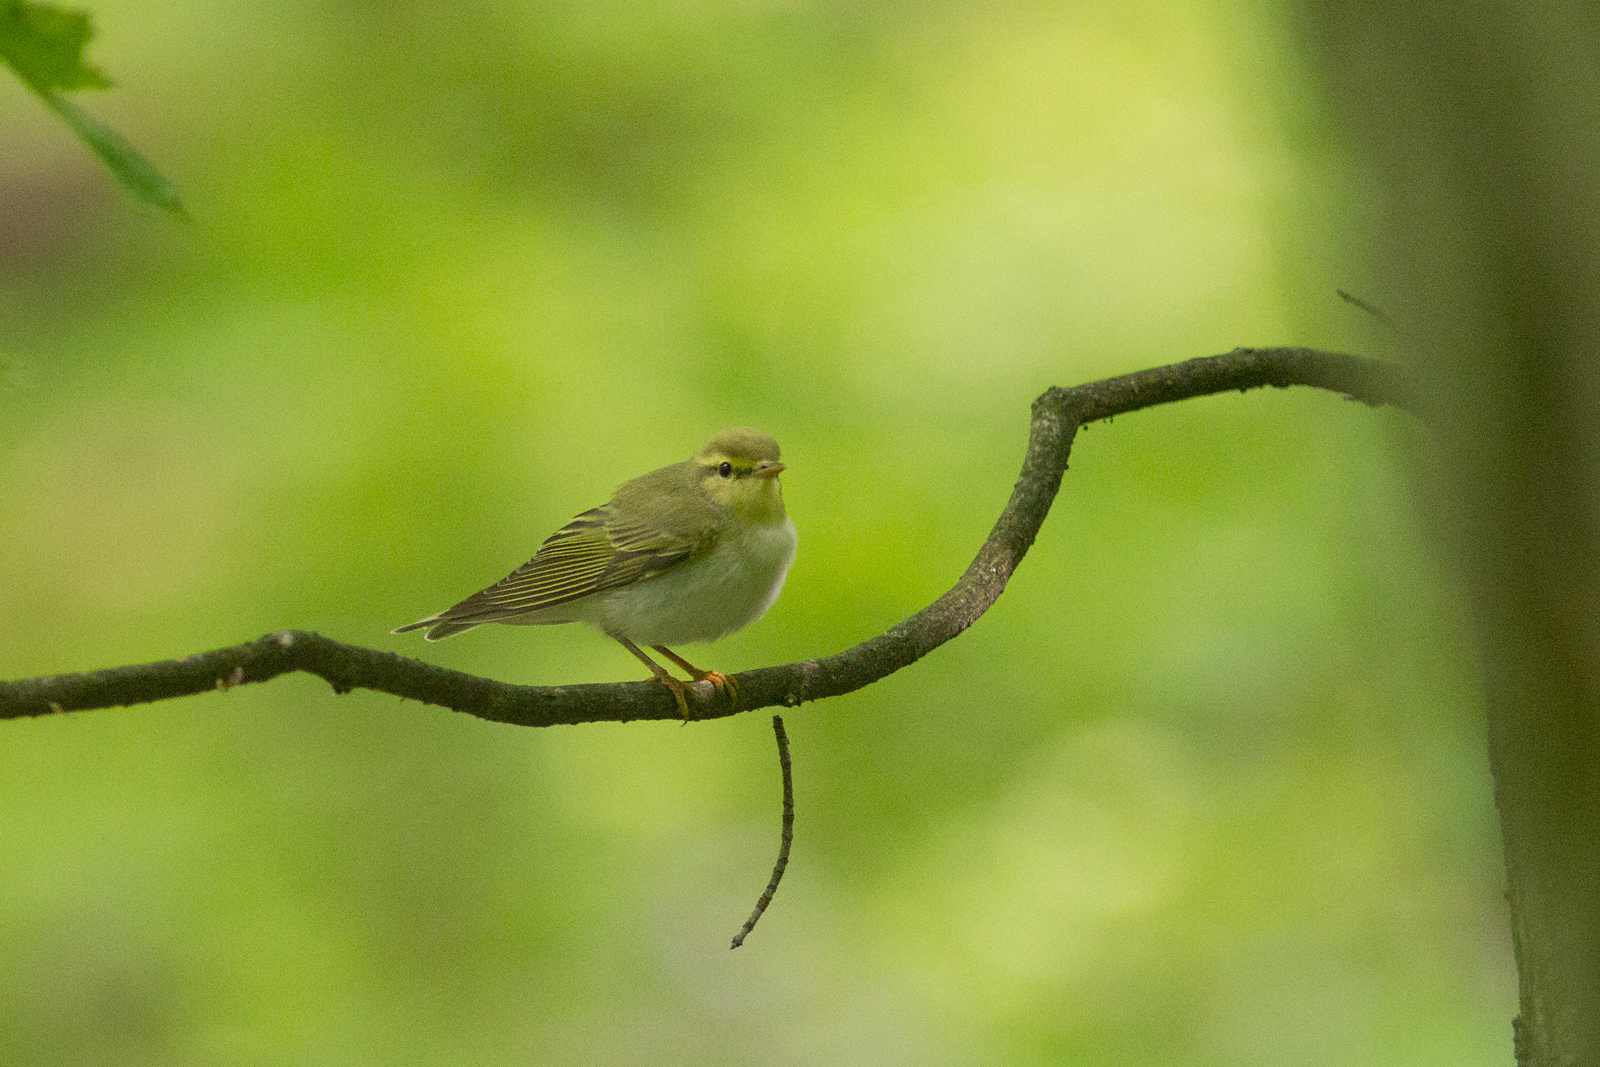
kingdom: Animalia
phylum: Chordata
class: Aves
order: Passeriformes
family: Phylloscopidae
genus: Phylloscopus
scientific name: Phylloscopus sibillatrix
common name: Wood warbler
